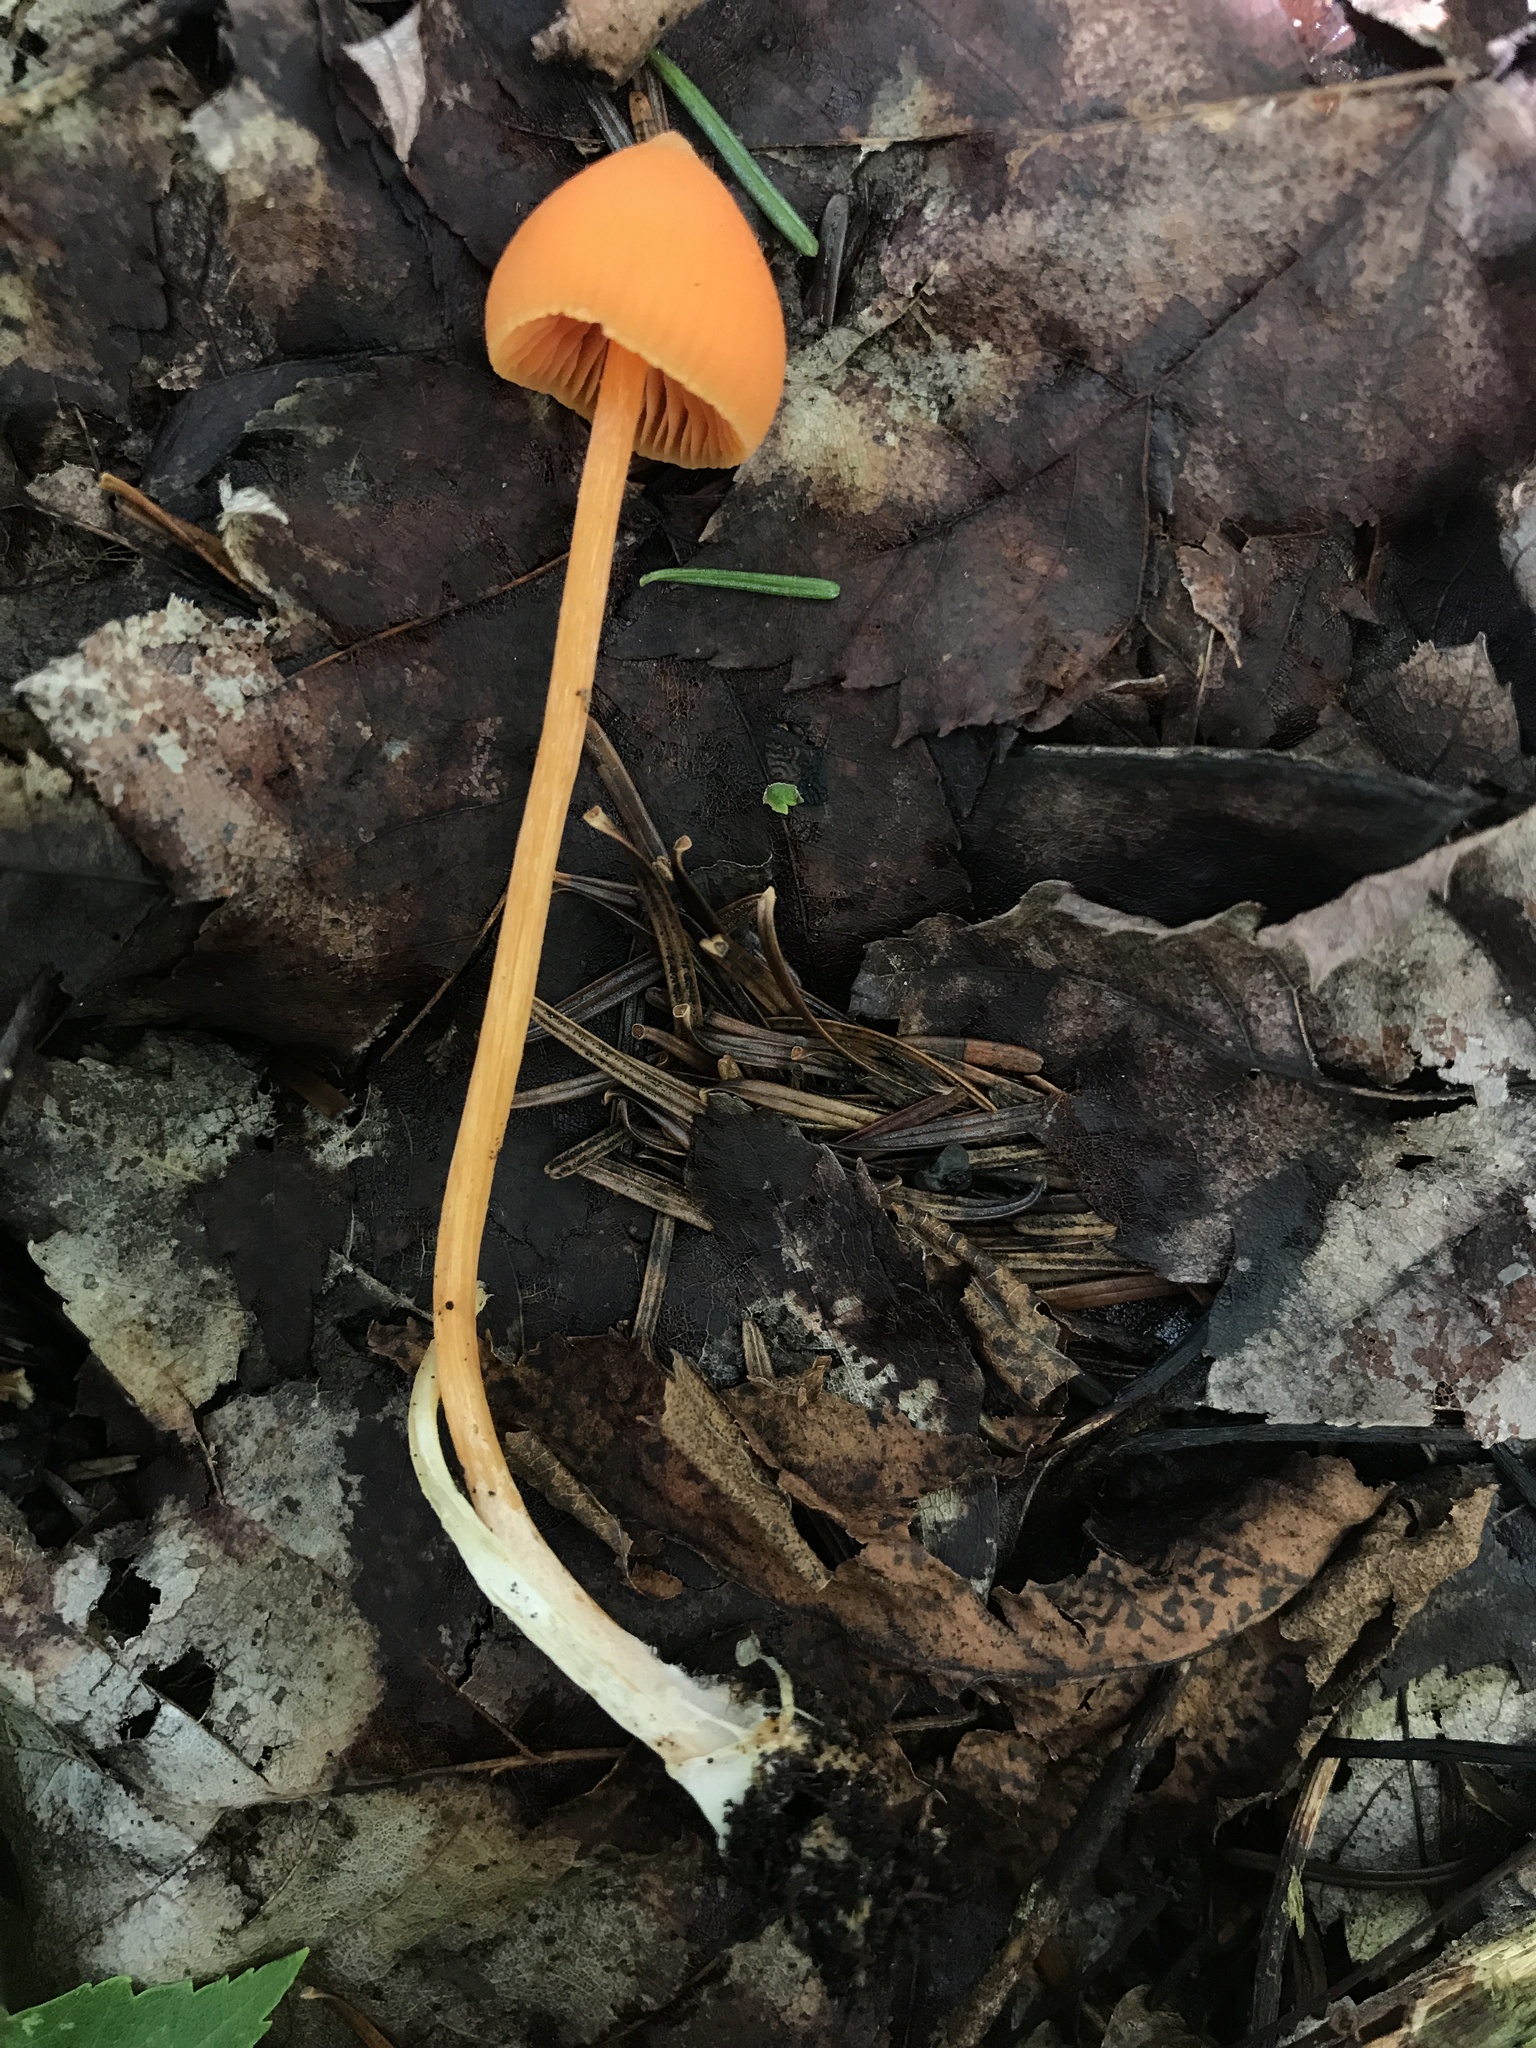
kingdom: Fungi
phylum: Basidiomycota
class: Agaricomycetes
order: Agaricales
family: Entolomataceae
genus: Entoloma
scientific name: Entoloma quadratum
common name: Salmon pinkgill
